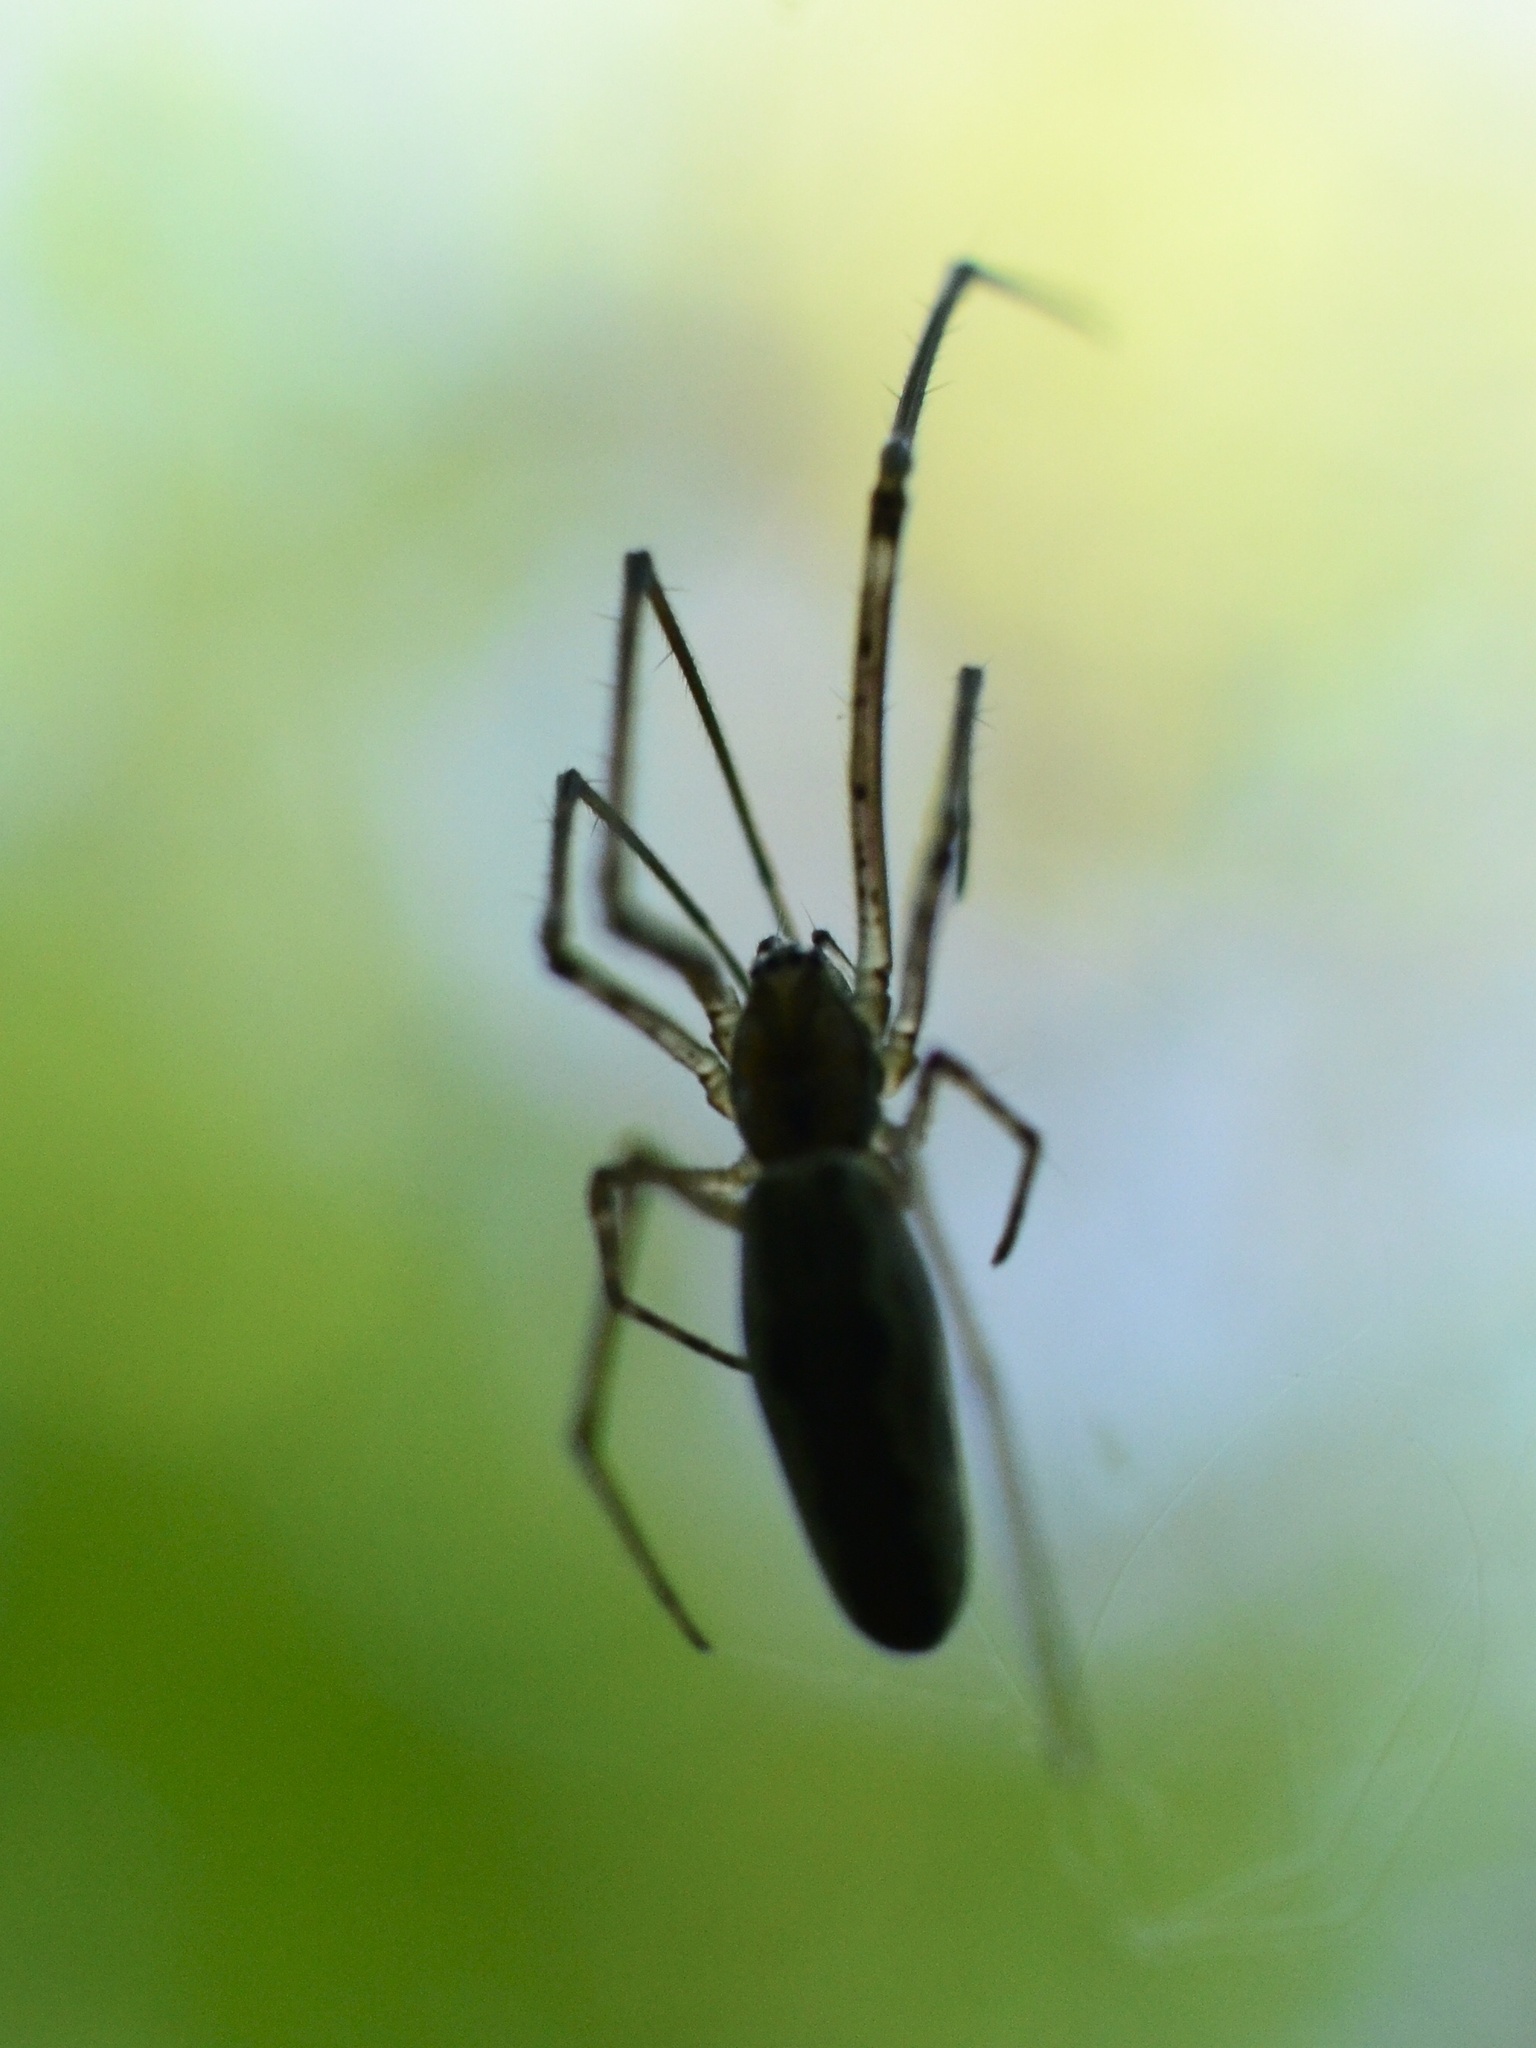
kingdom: Animalia
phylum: Arthropoda
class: Arachnida
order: Araneae
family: Tetragnathidae
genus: Tetragnatha
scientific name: Tetragnatha
